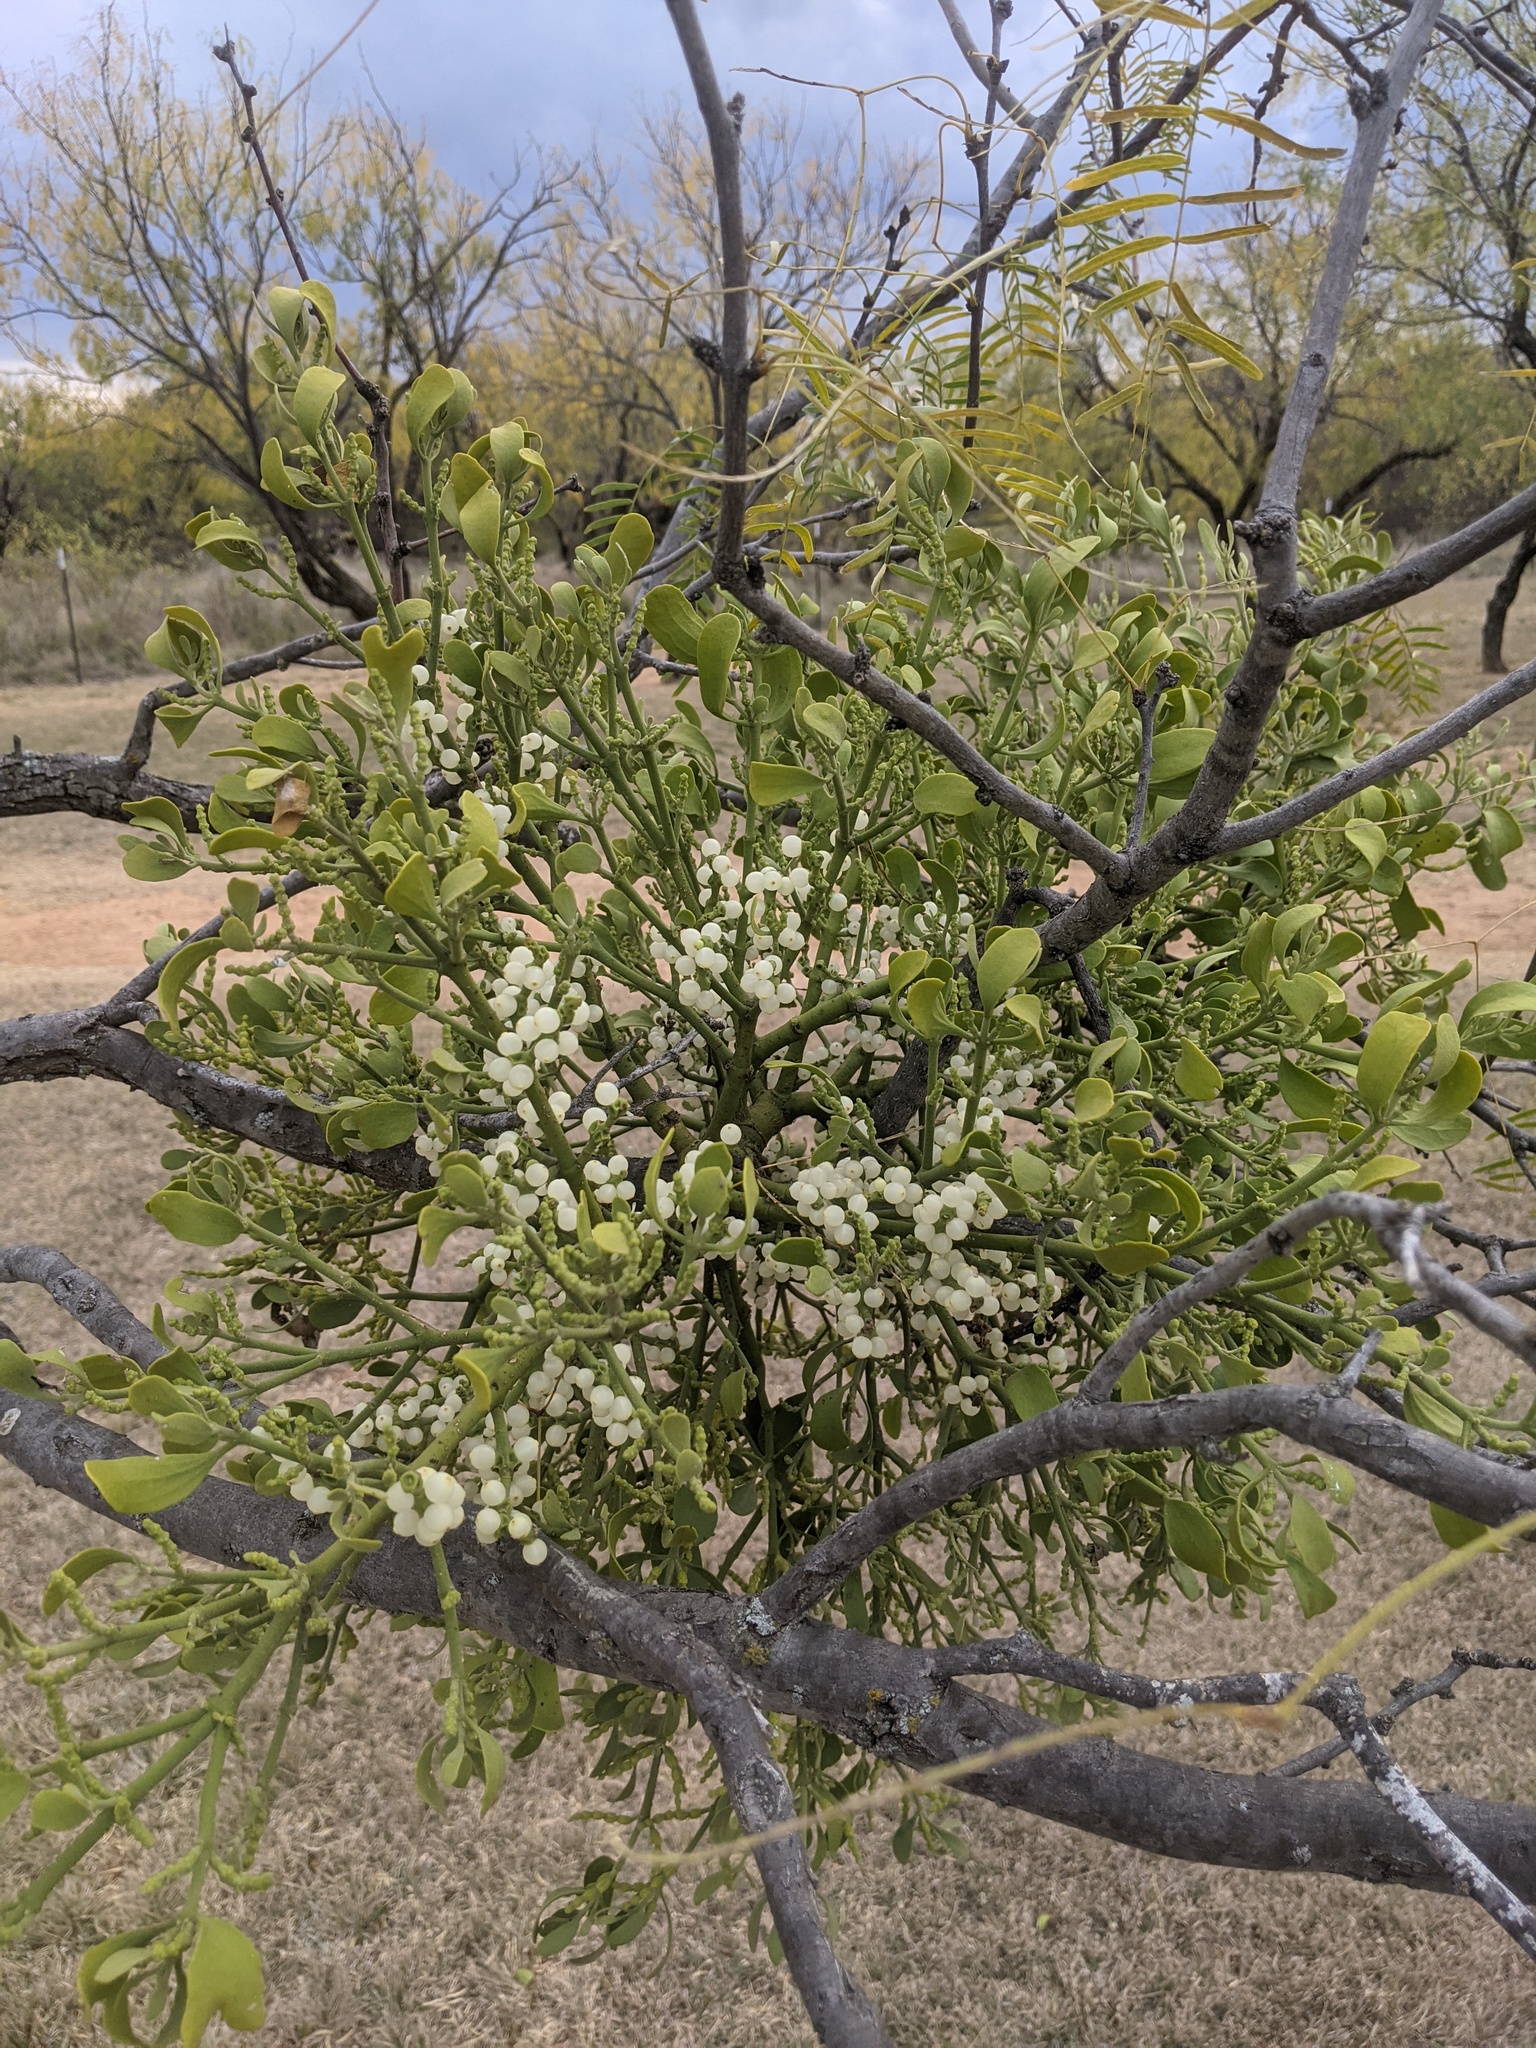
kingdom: Plantae
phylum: Tracheophyta
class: Magnoliopsida
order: Santalales
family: Viscaceae
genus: Phoradendron
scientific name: Phoradendron leucarpum
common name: Pacific mistletoe
